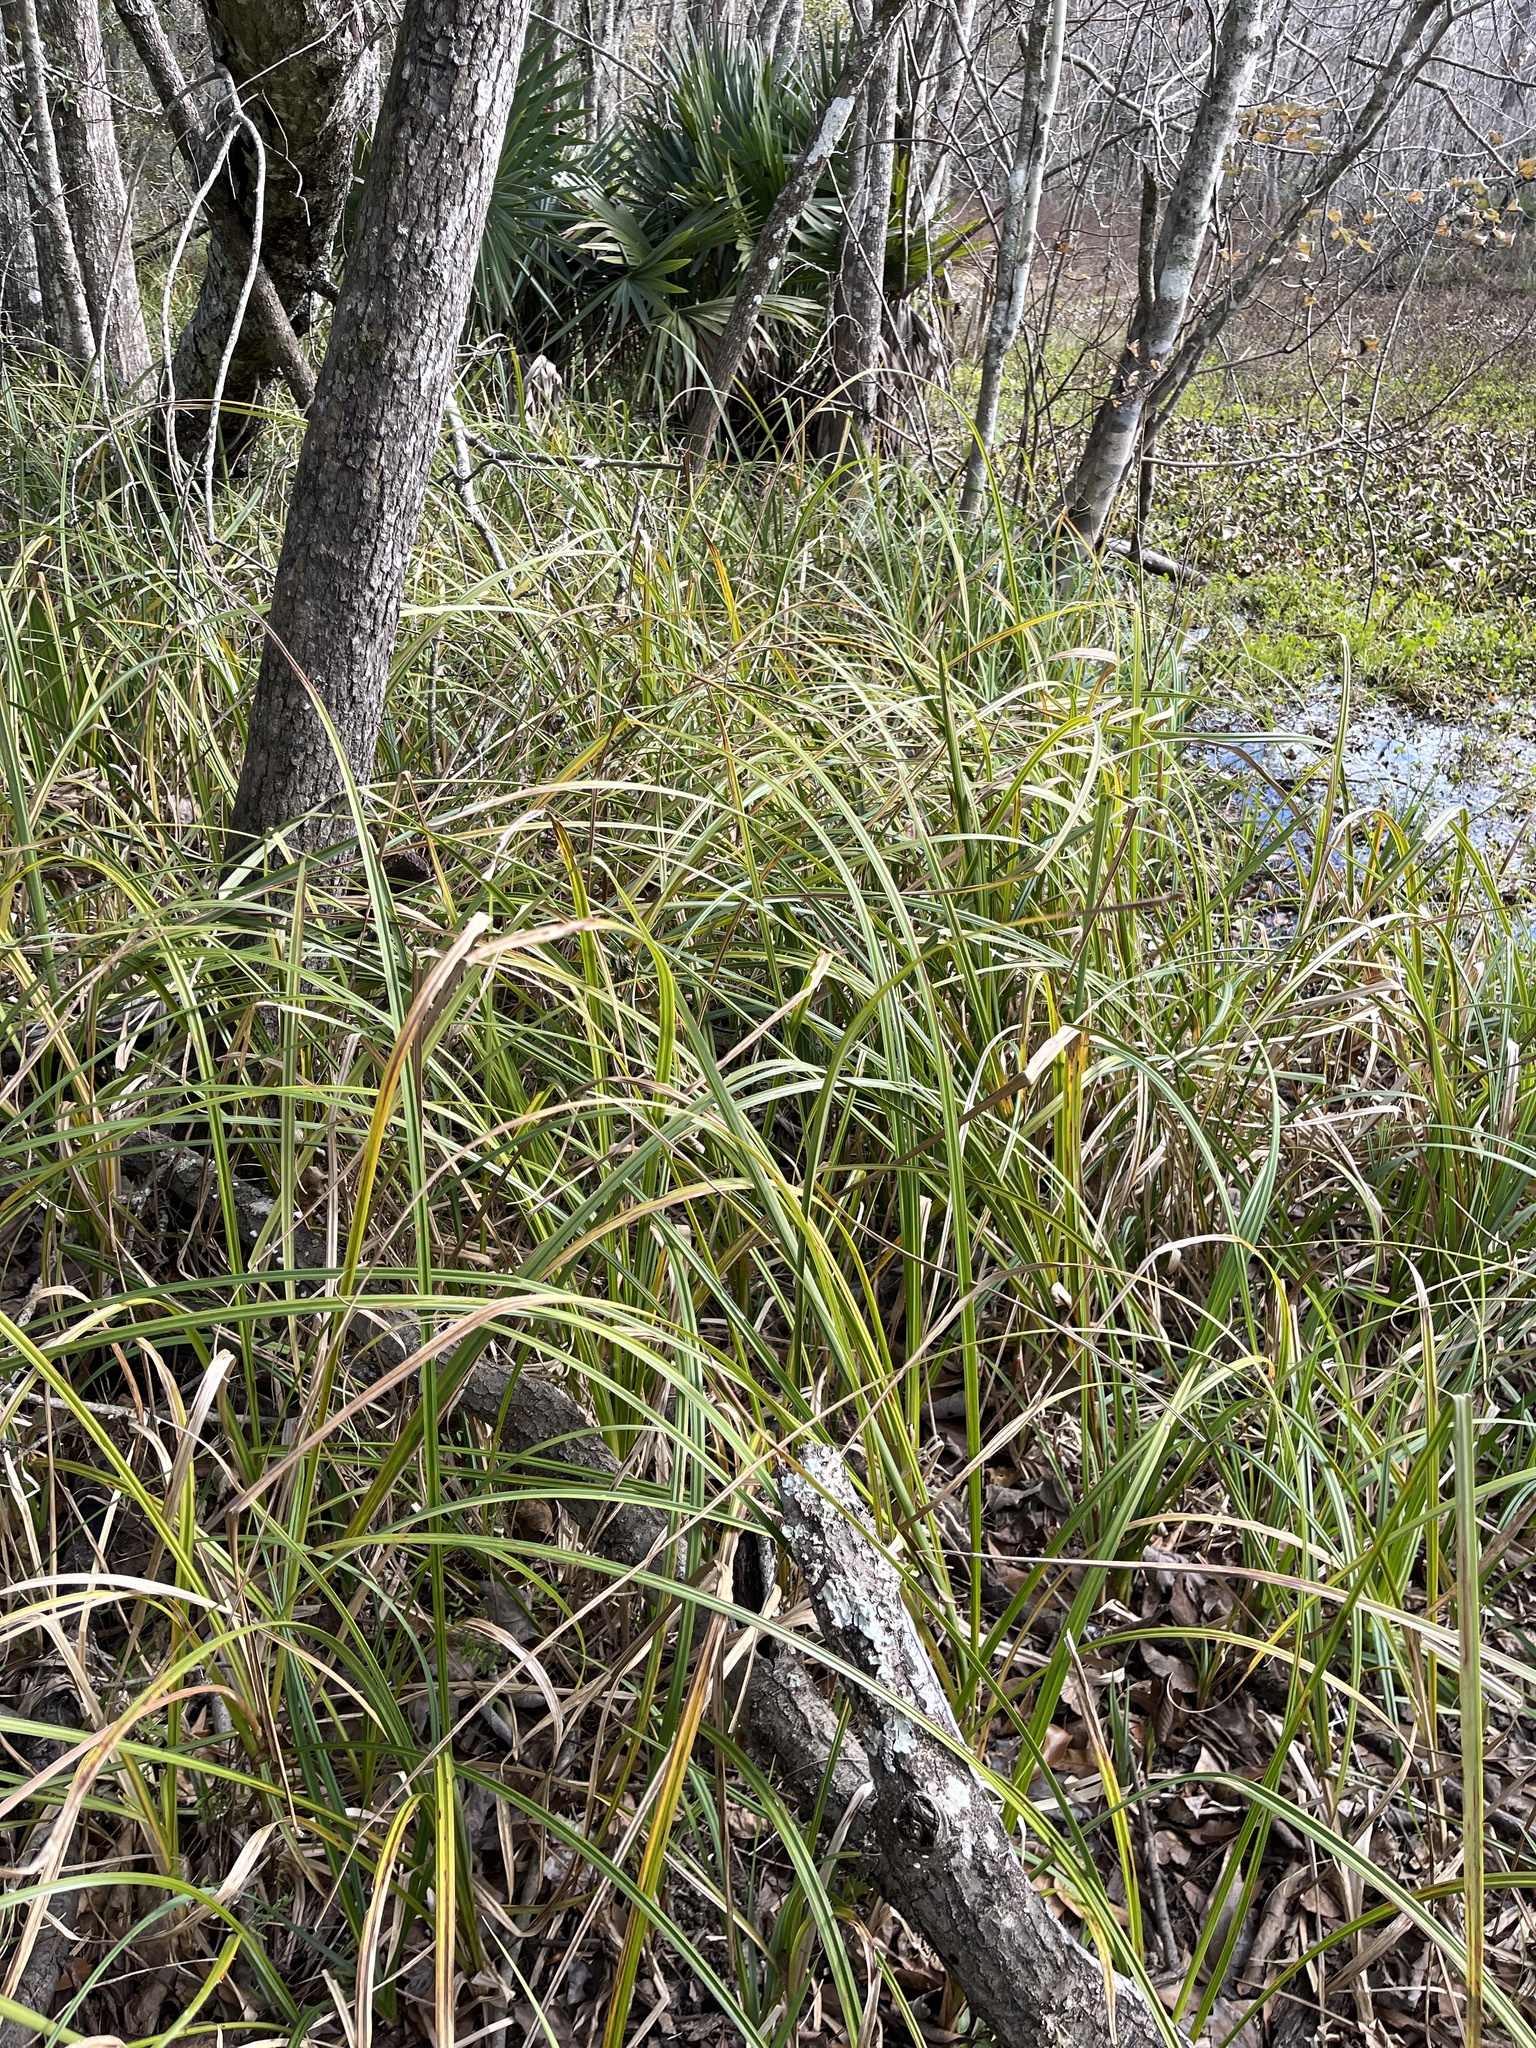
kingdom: Plantae
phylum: Tracheophyta
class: Liliopsida
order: Poales
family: Cyperaceae
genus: Carex
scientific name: Carex hyalinolepis
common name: Shoreline sedge
